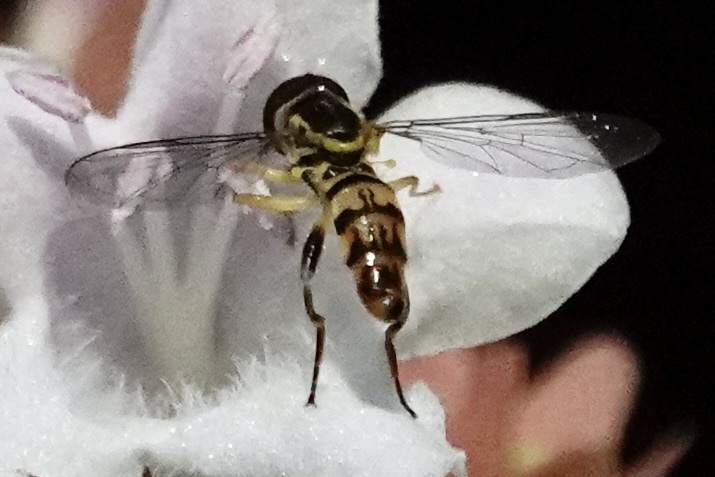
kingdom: Animalia
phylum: Arthropoda
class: Insecta
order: Diptera
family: Syrphidae
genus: Toxomerus
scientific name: Toxomerus geminatus
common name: Eastern calligrapher
